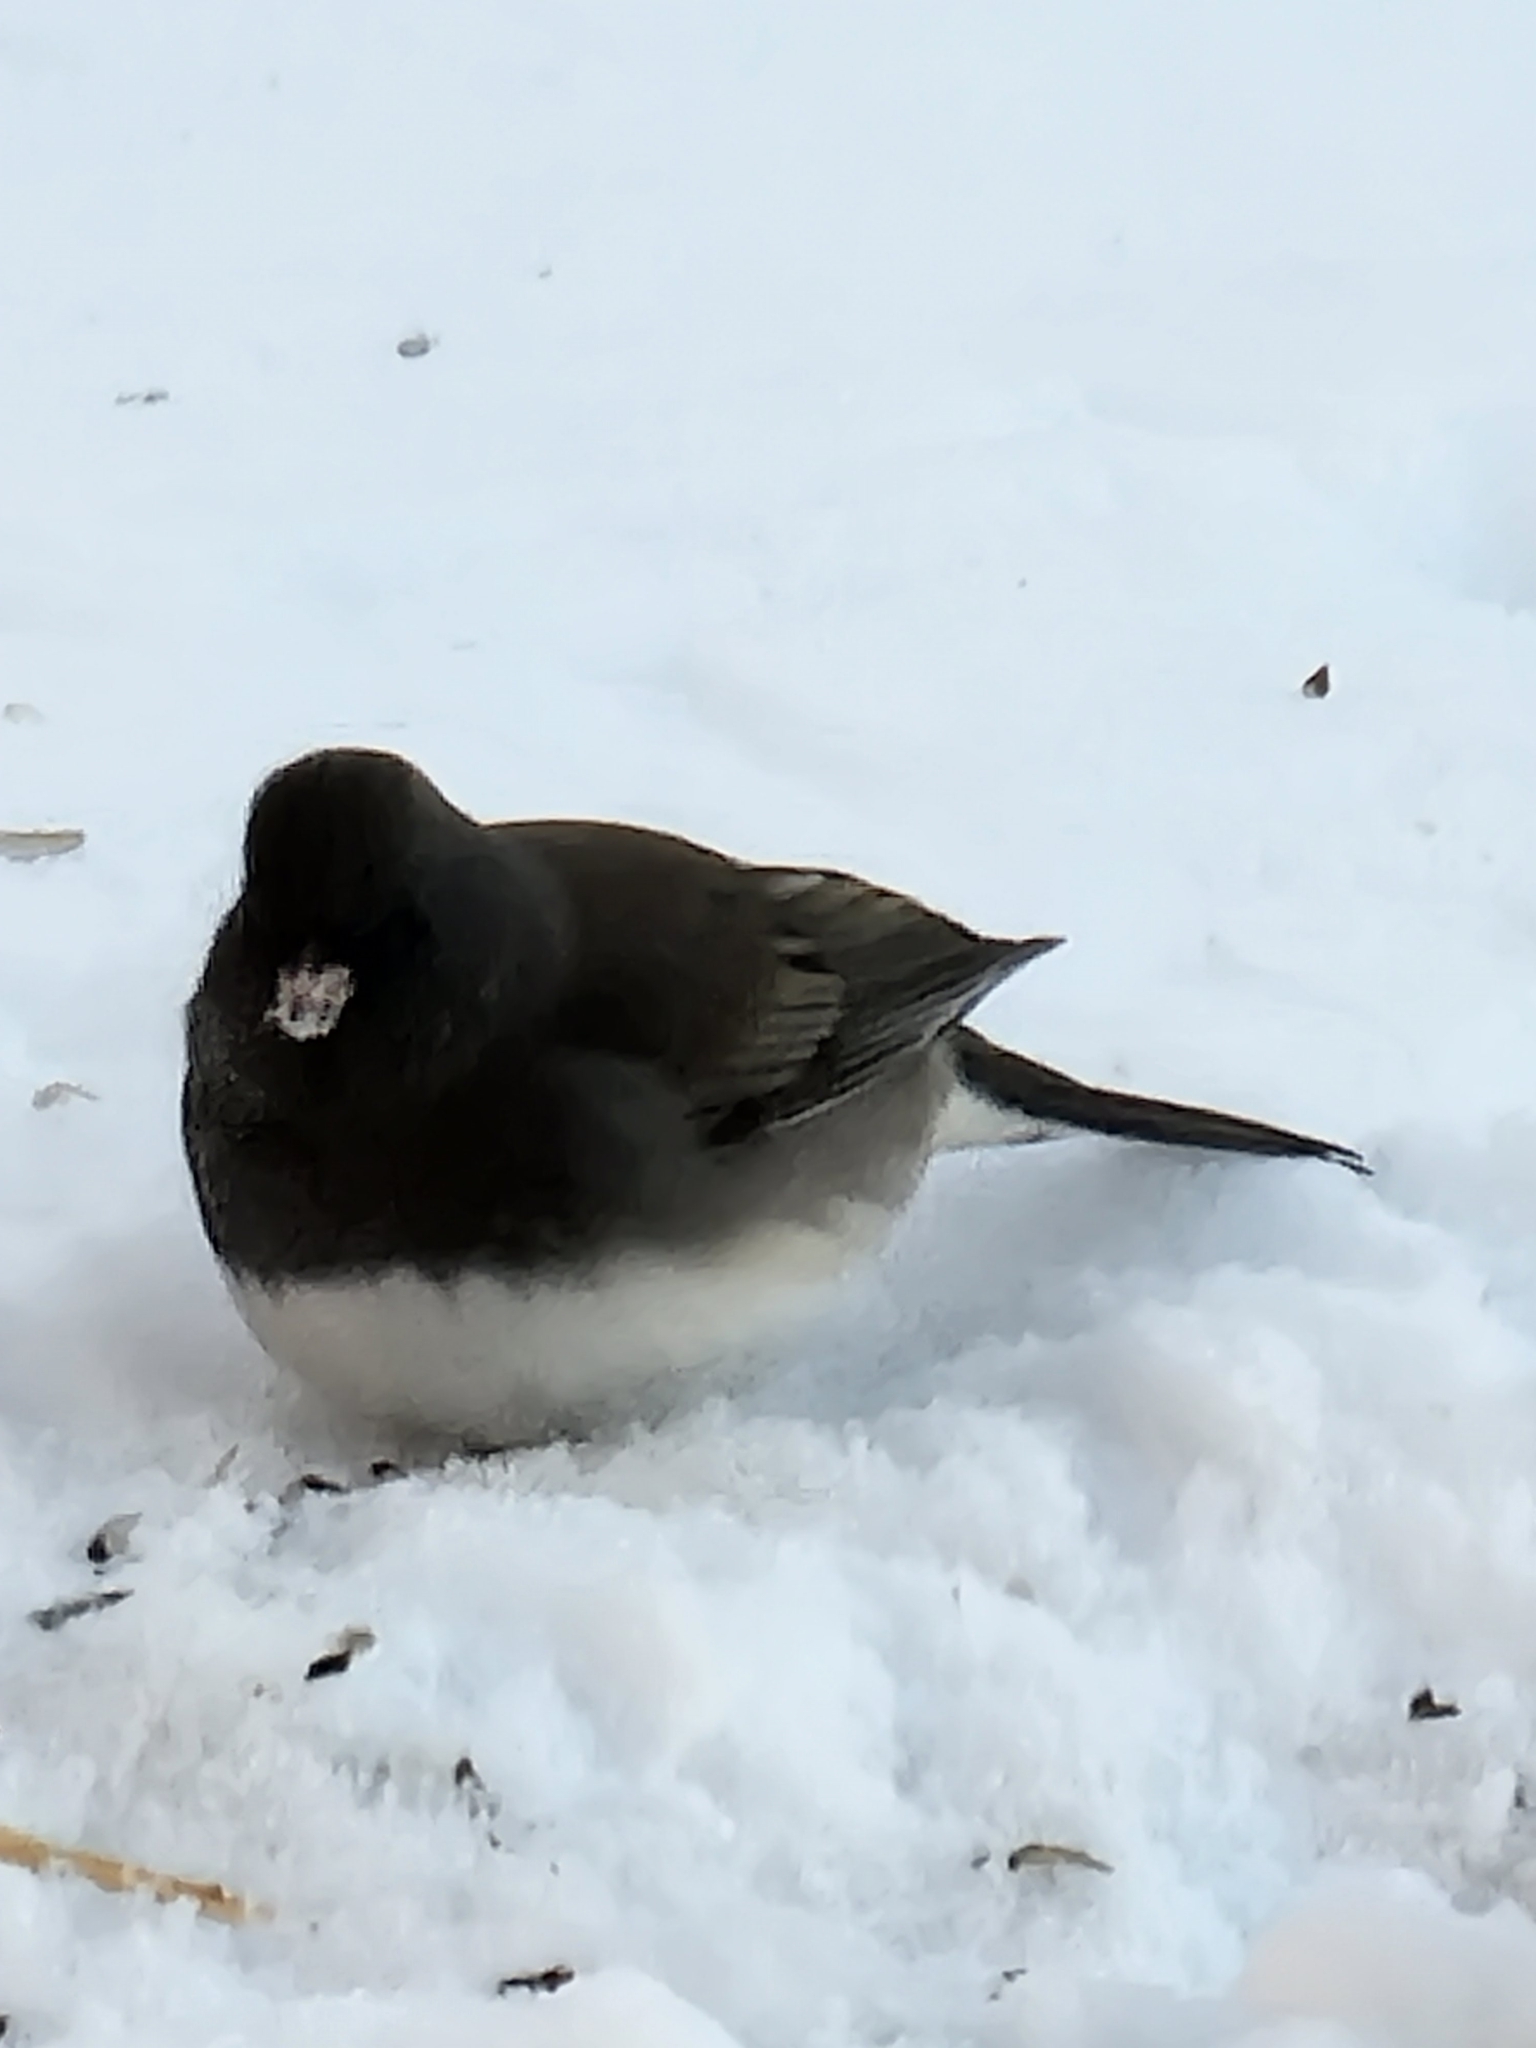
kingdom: Animalia
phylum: Chordata
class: Aves
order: Passeriformes
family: Passerellidae
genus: Junco
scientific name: Junco hyemalis
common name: Dark-eyed junco
